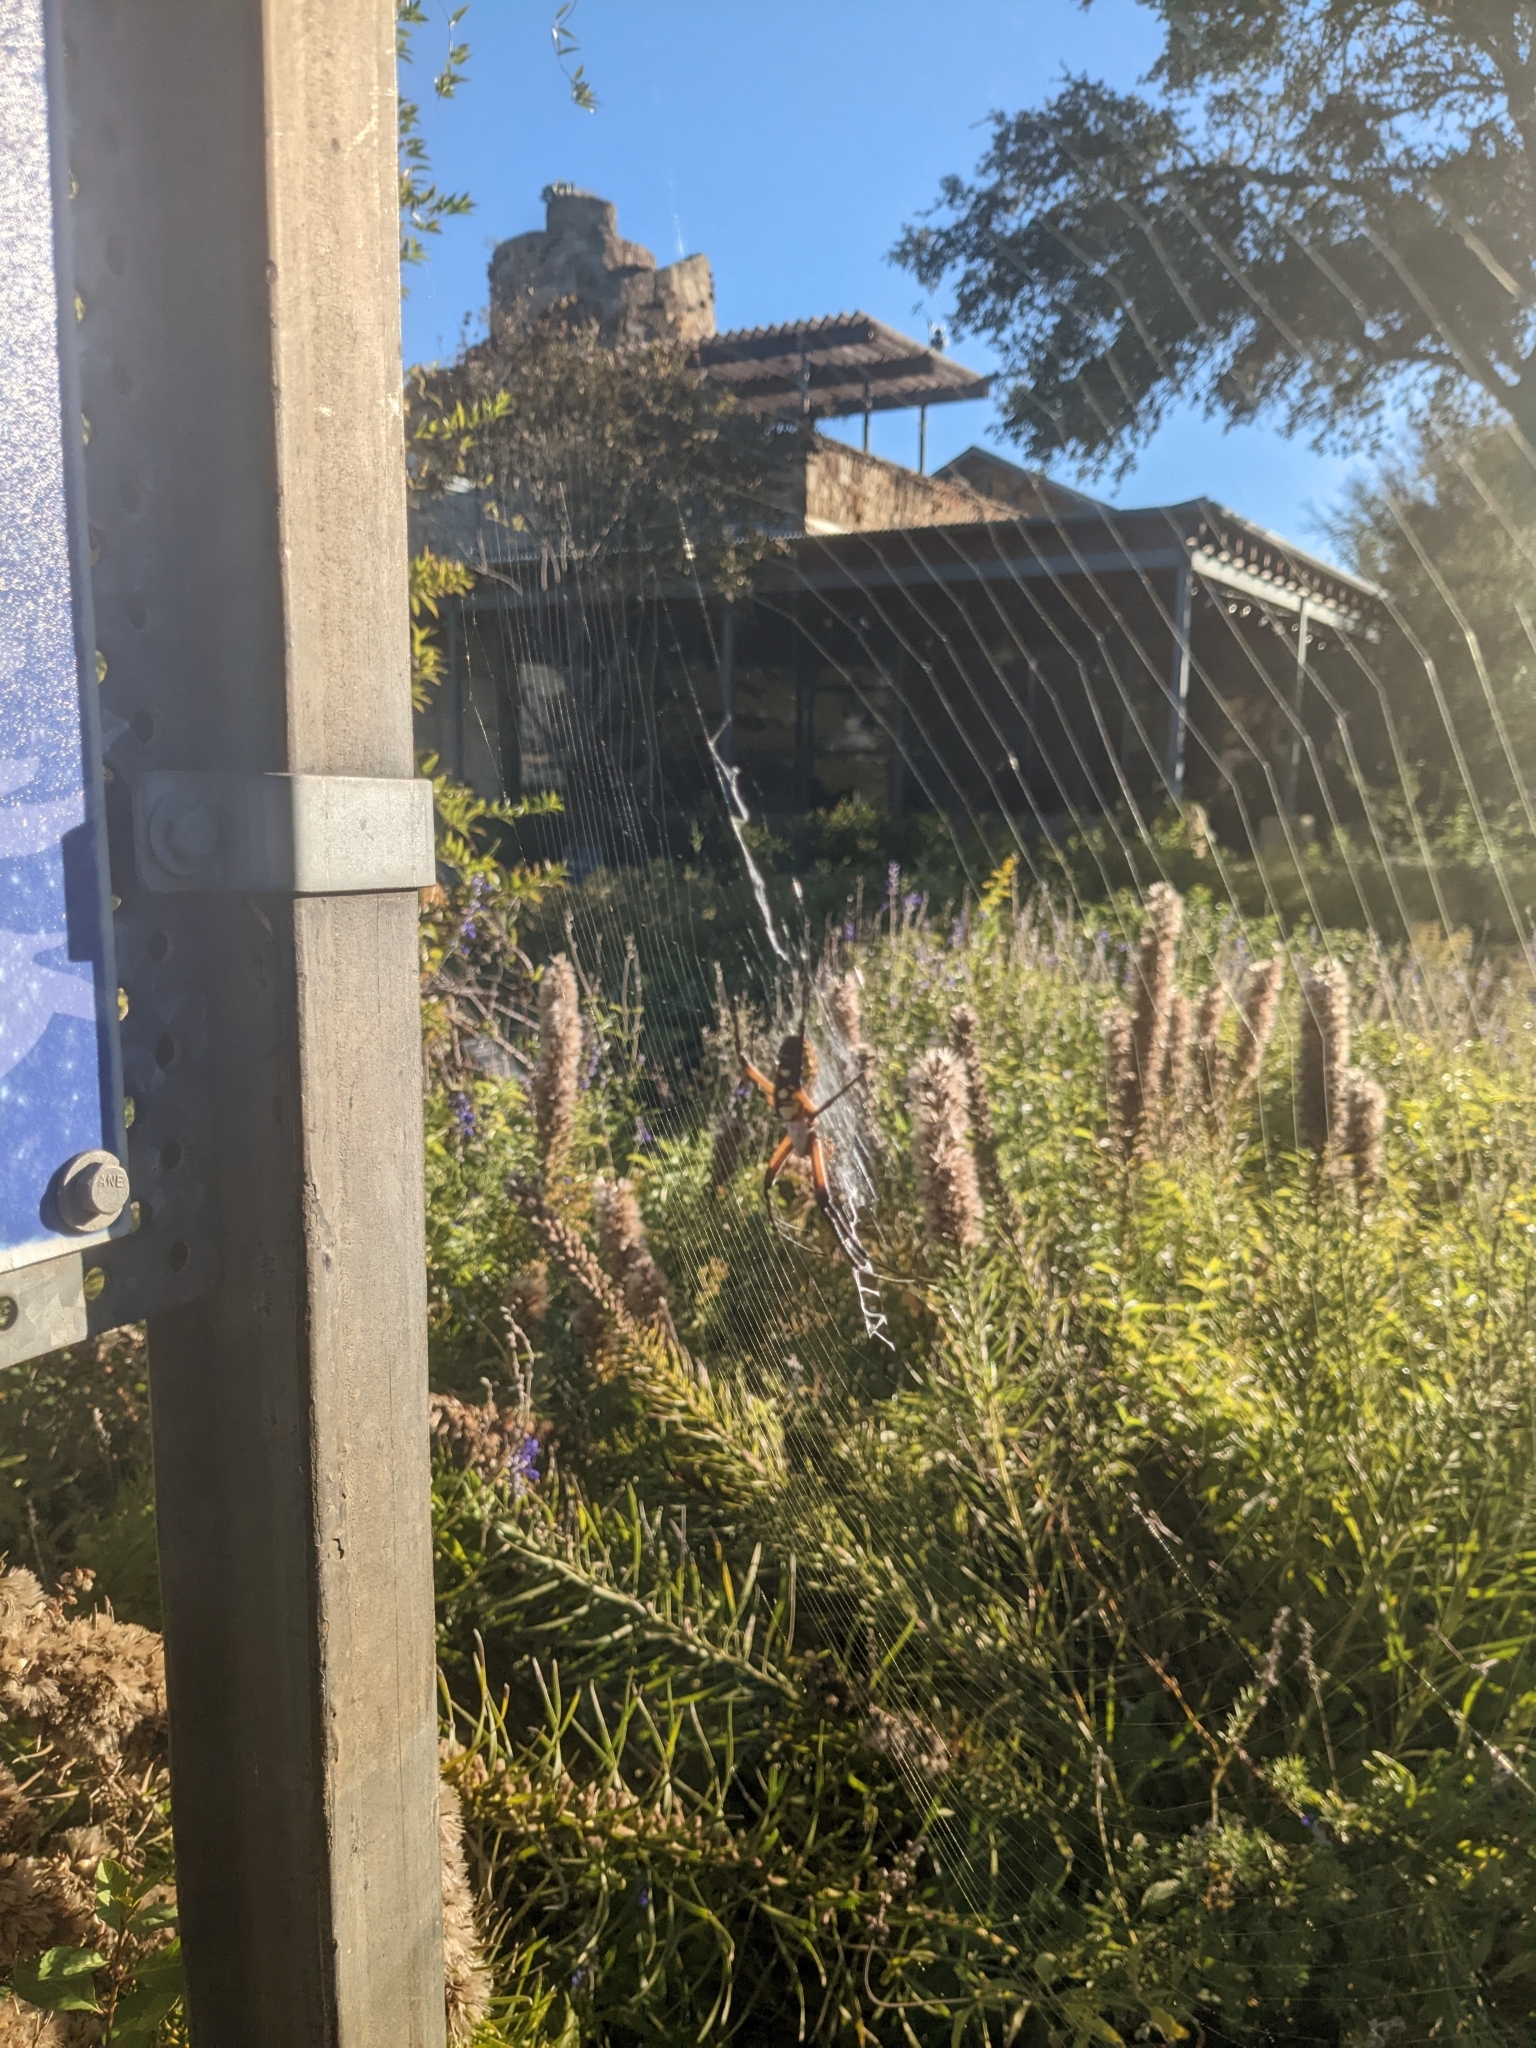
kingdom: Animalia
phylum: Arthropoda
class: Arachnida
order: Araneae
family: Araneidae
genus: Argiope
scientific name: Argiope aurantia
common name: Orb weavers
